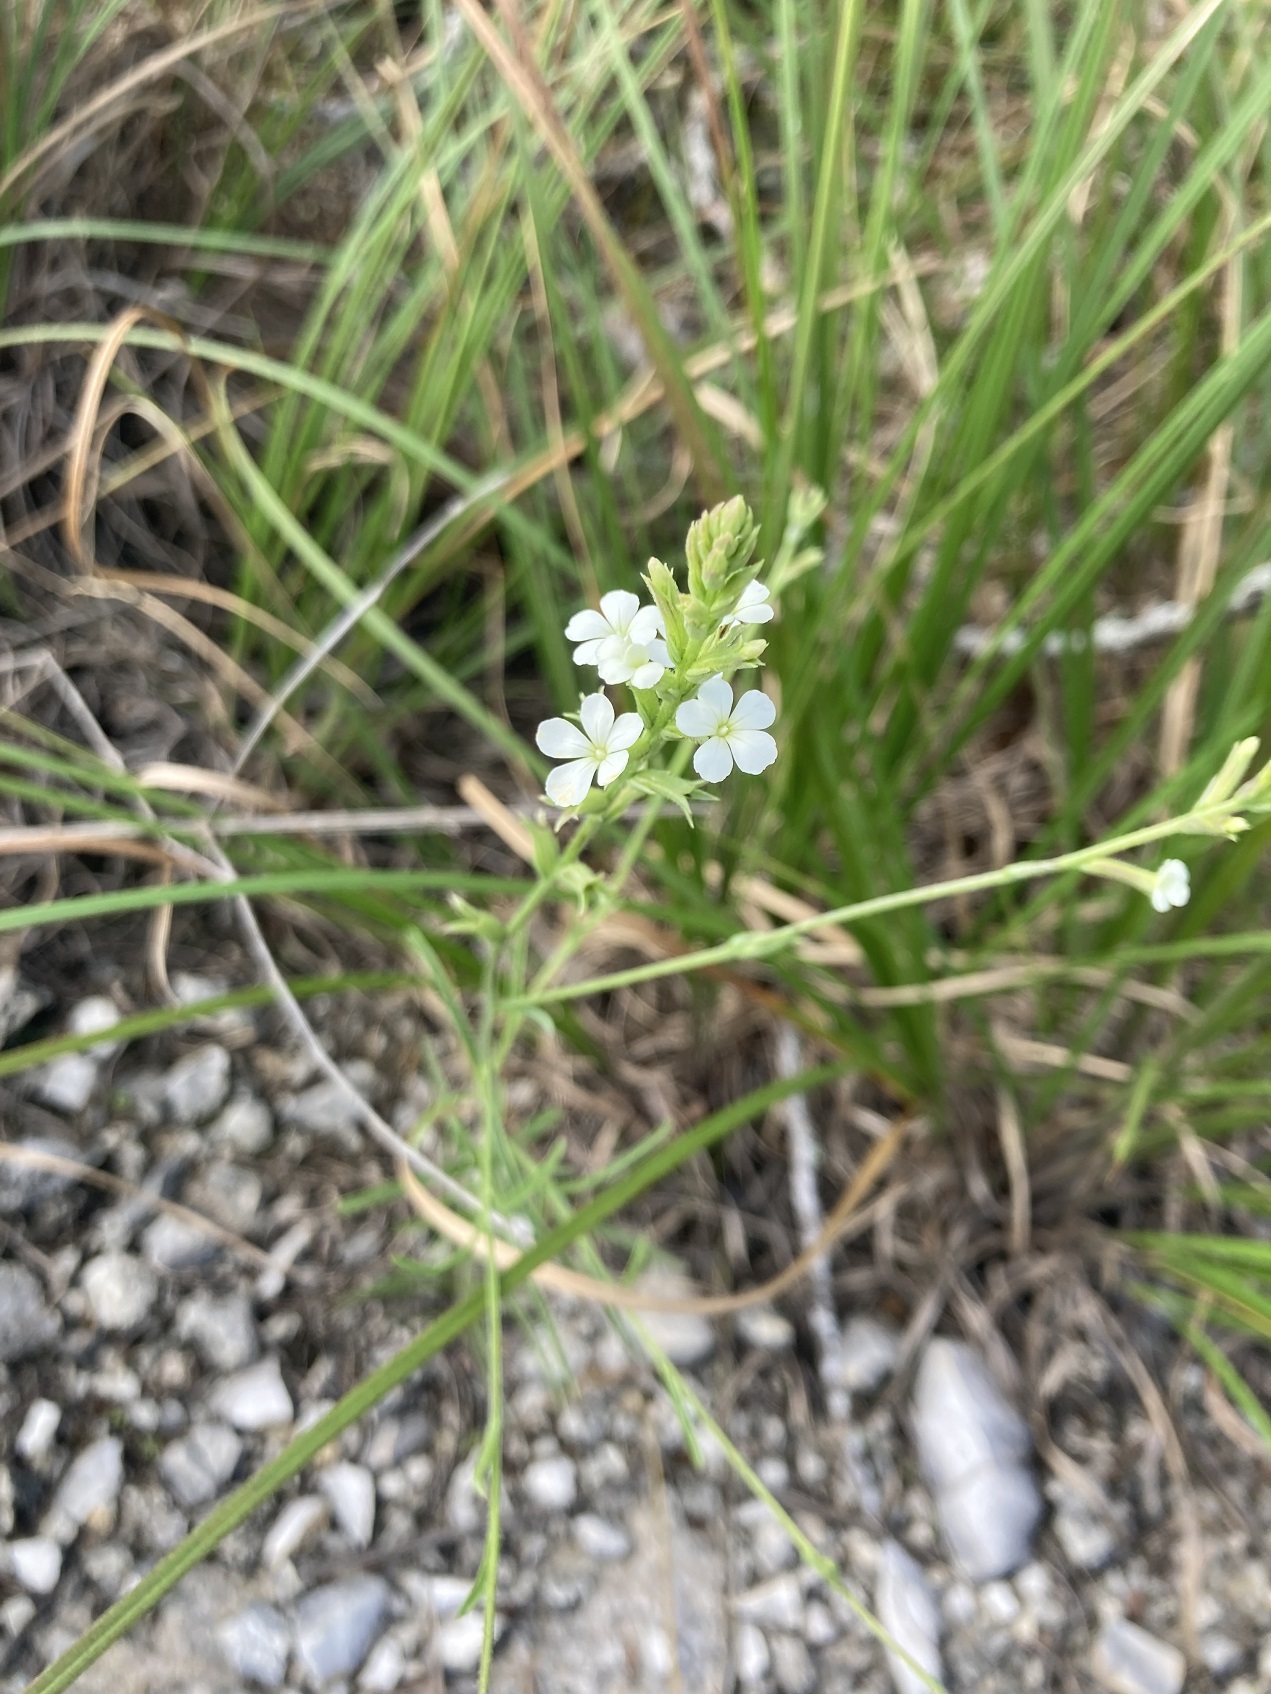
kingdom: Plantae
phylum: Tracheophyta
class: Magnoliopsida
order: Lamiales
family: Orobanchaceae
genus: Buchnera
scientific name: Buchnera pusilla
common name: Pygmy bluehearts
